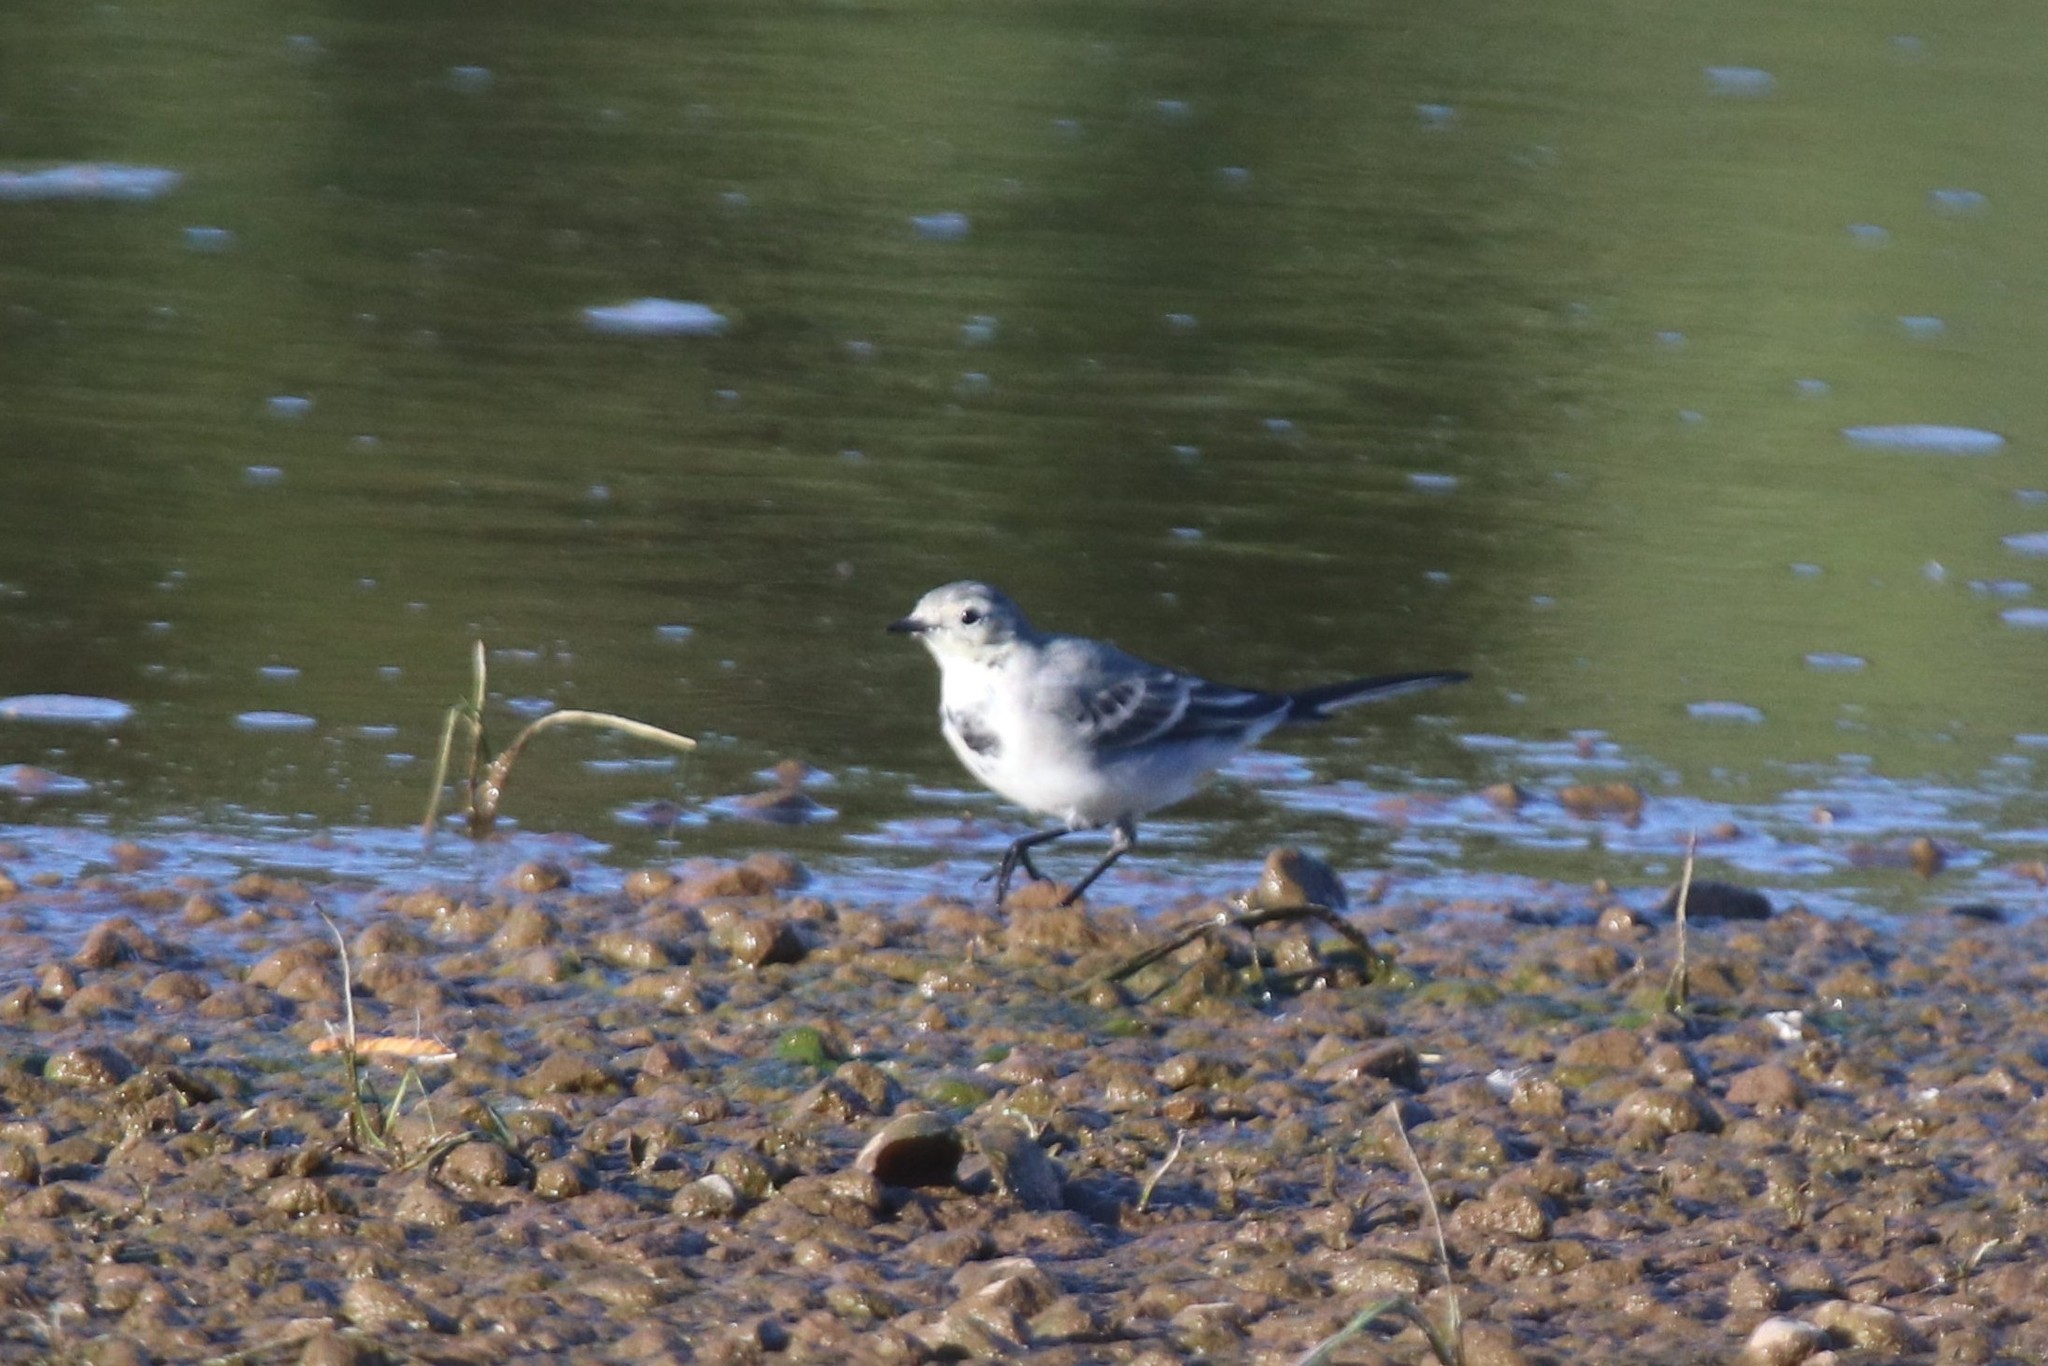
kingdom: Animalia
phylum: Chordata
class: Aves
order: Passeriformes
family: Motacillidae
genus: Motacilla
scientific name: Motacilla alba
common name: White wagtail
